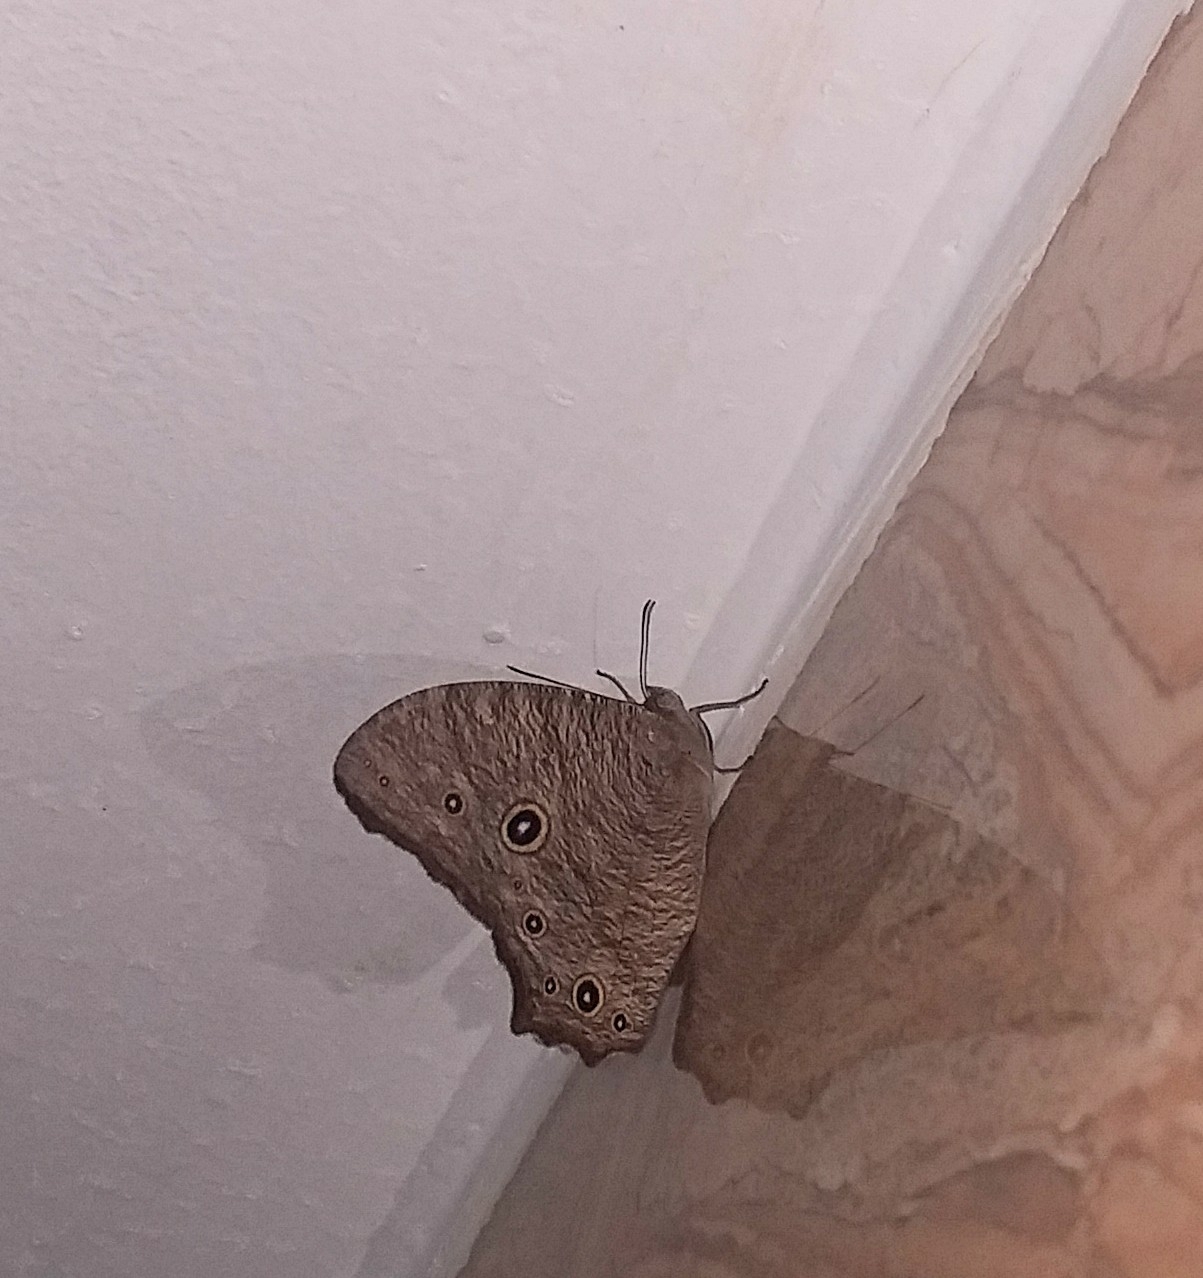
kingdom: Animalia
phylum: Arthropoda
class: Insecta
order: Lepidoptera
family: Nymphalidae
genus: Melanitis
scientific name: Melanitis leda
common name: Twilight brown
